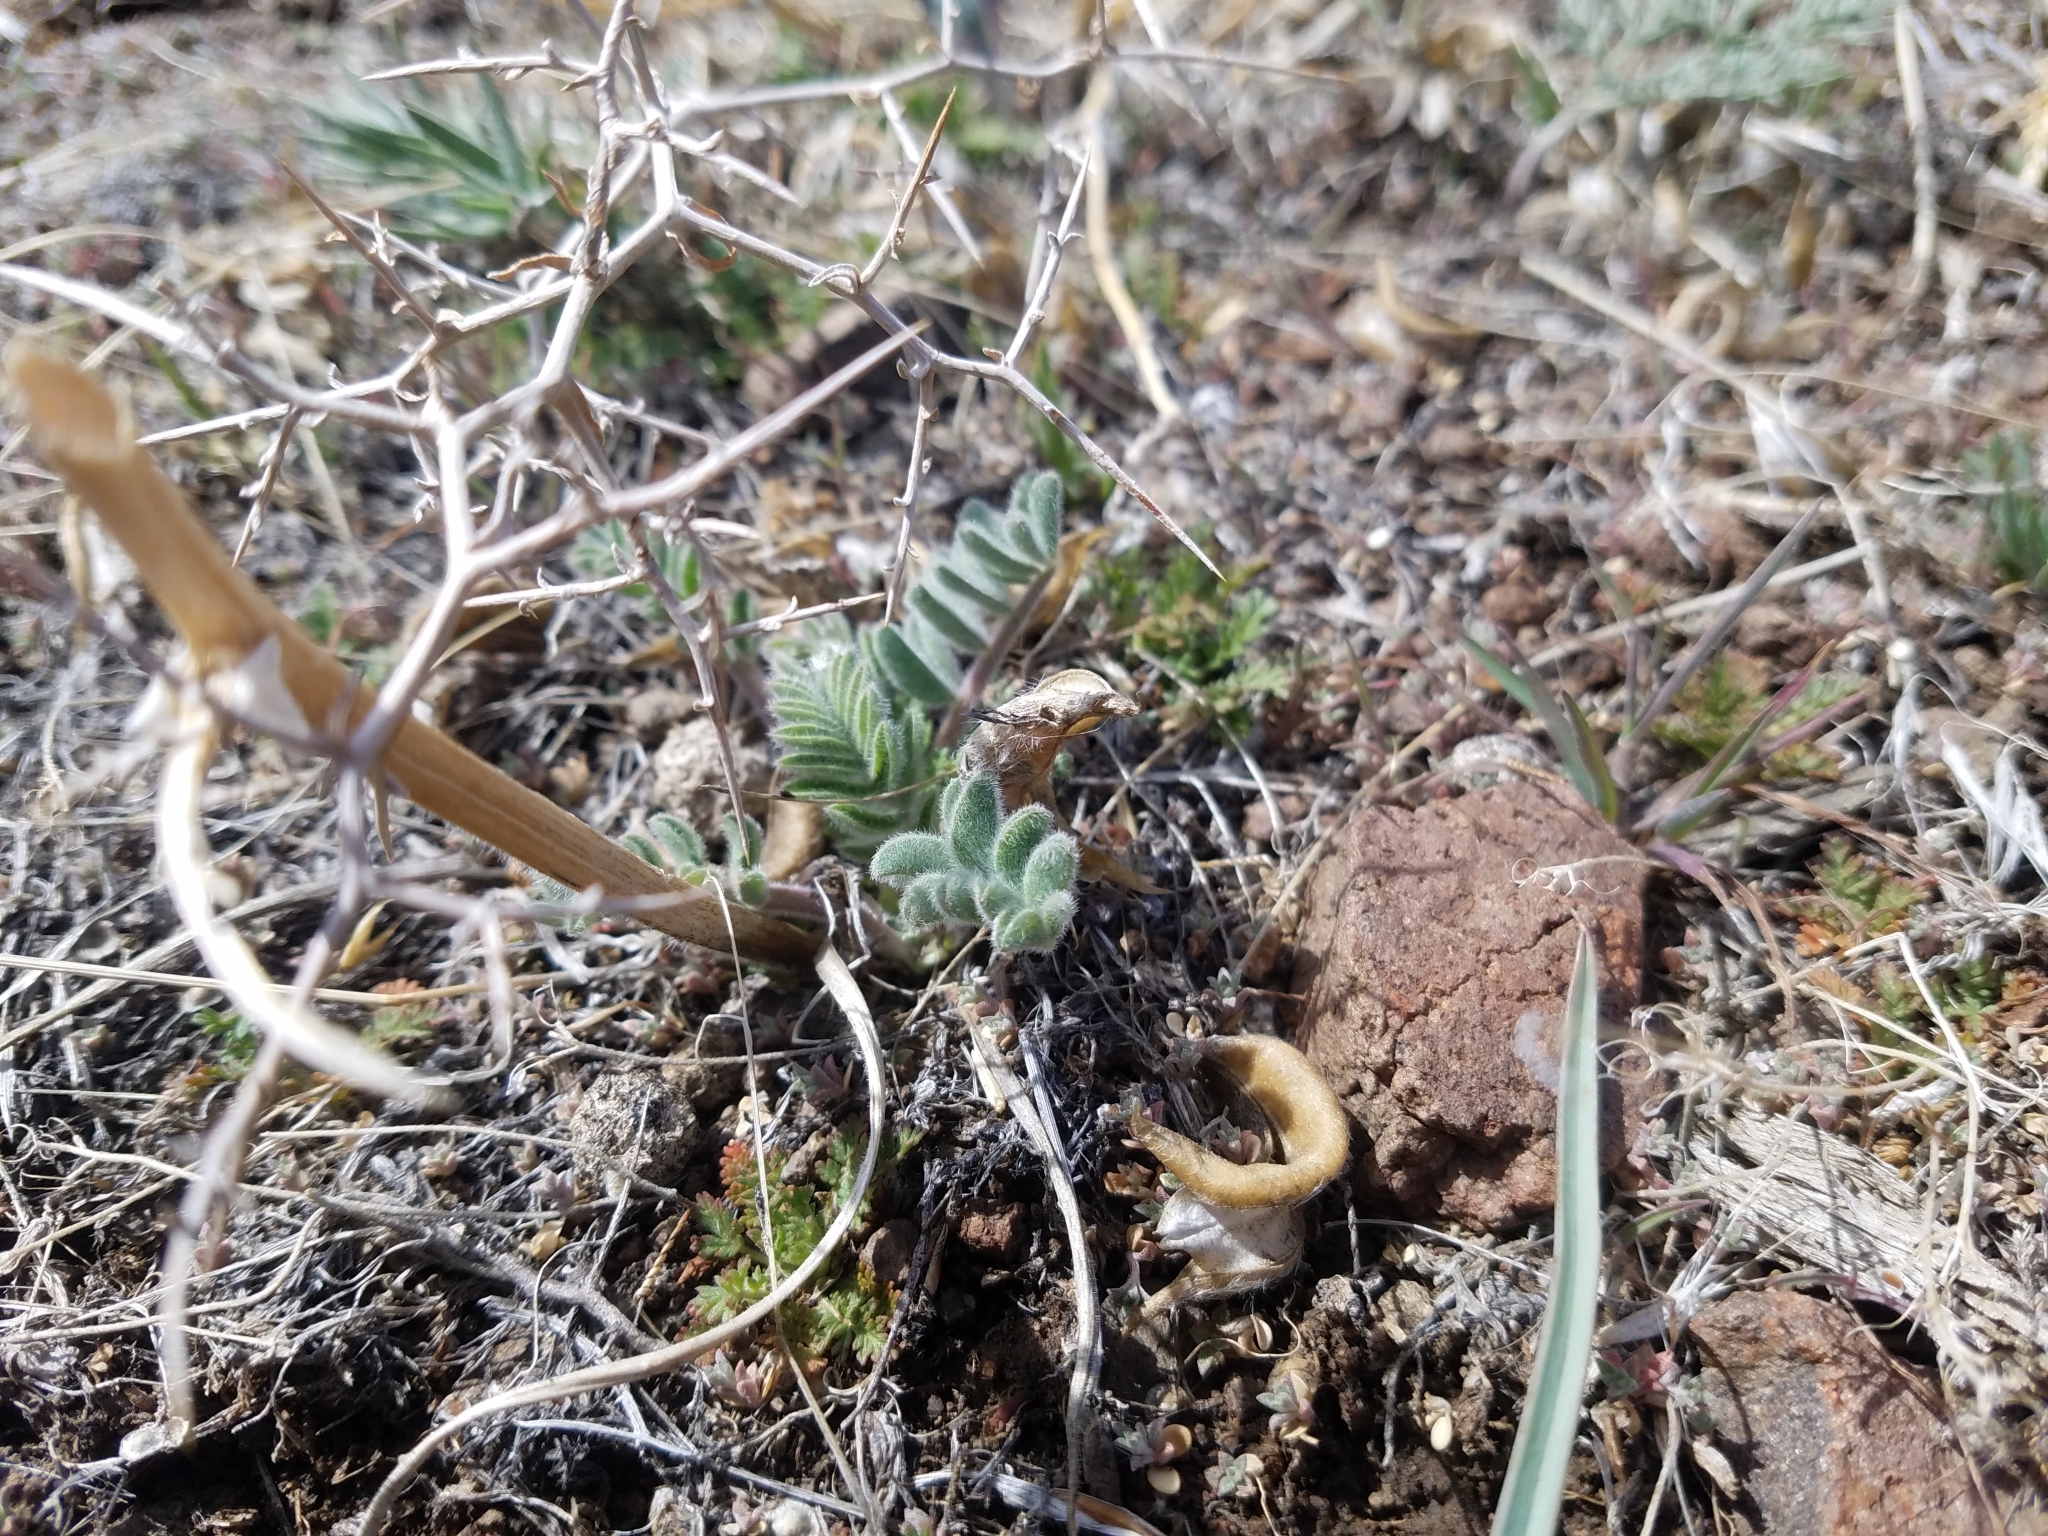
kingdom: Plantae
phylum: Tracheophyta
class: Magnoliopsida
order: Fabales
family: Fabaceae
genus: Astragalus
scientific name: Astragalus malacus
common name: Shaggy milk-vetch
